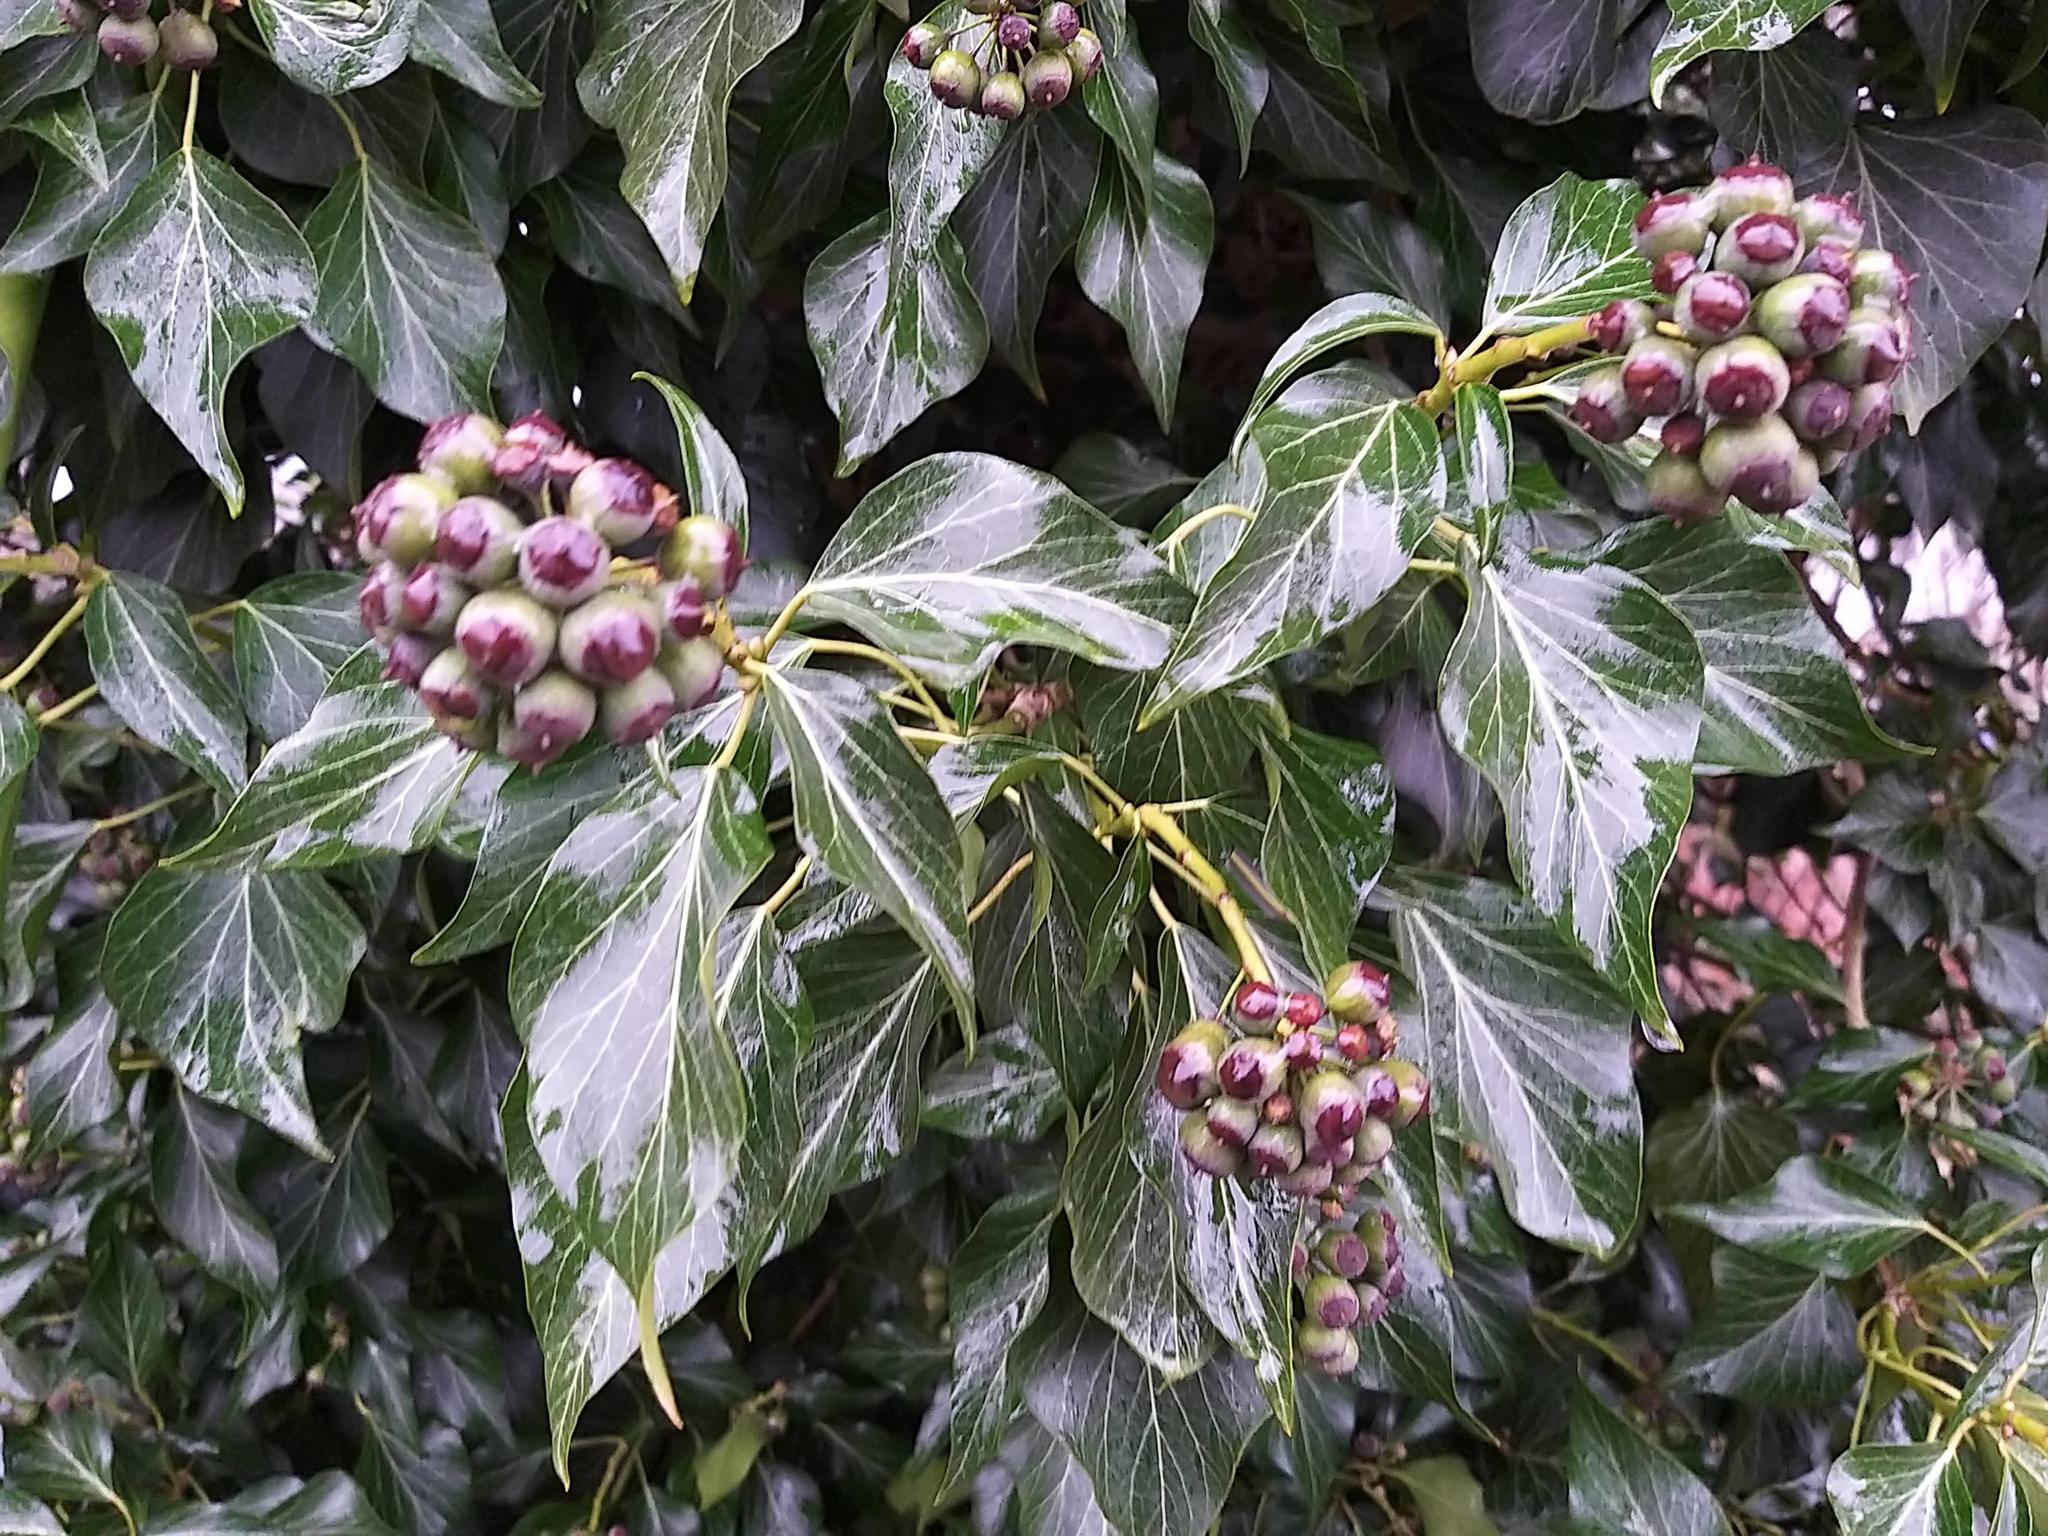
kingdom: Plantae
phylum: Tracheophyta
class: Magnoliopsida
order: Apiales
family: Araliaceae
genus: Hedera
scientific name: Hedera helix
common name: Ivy
